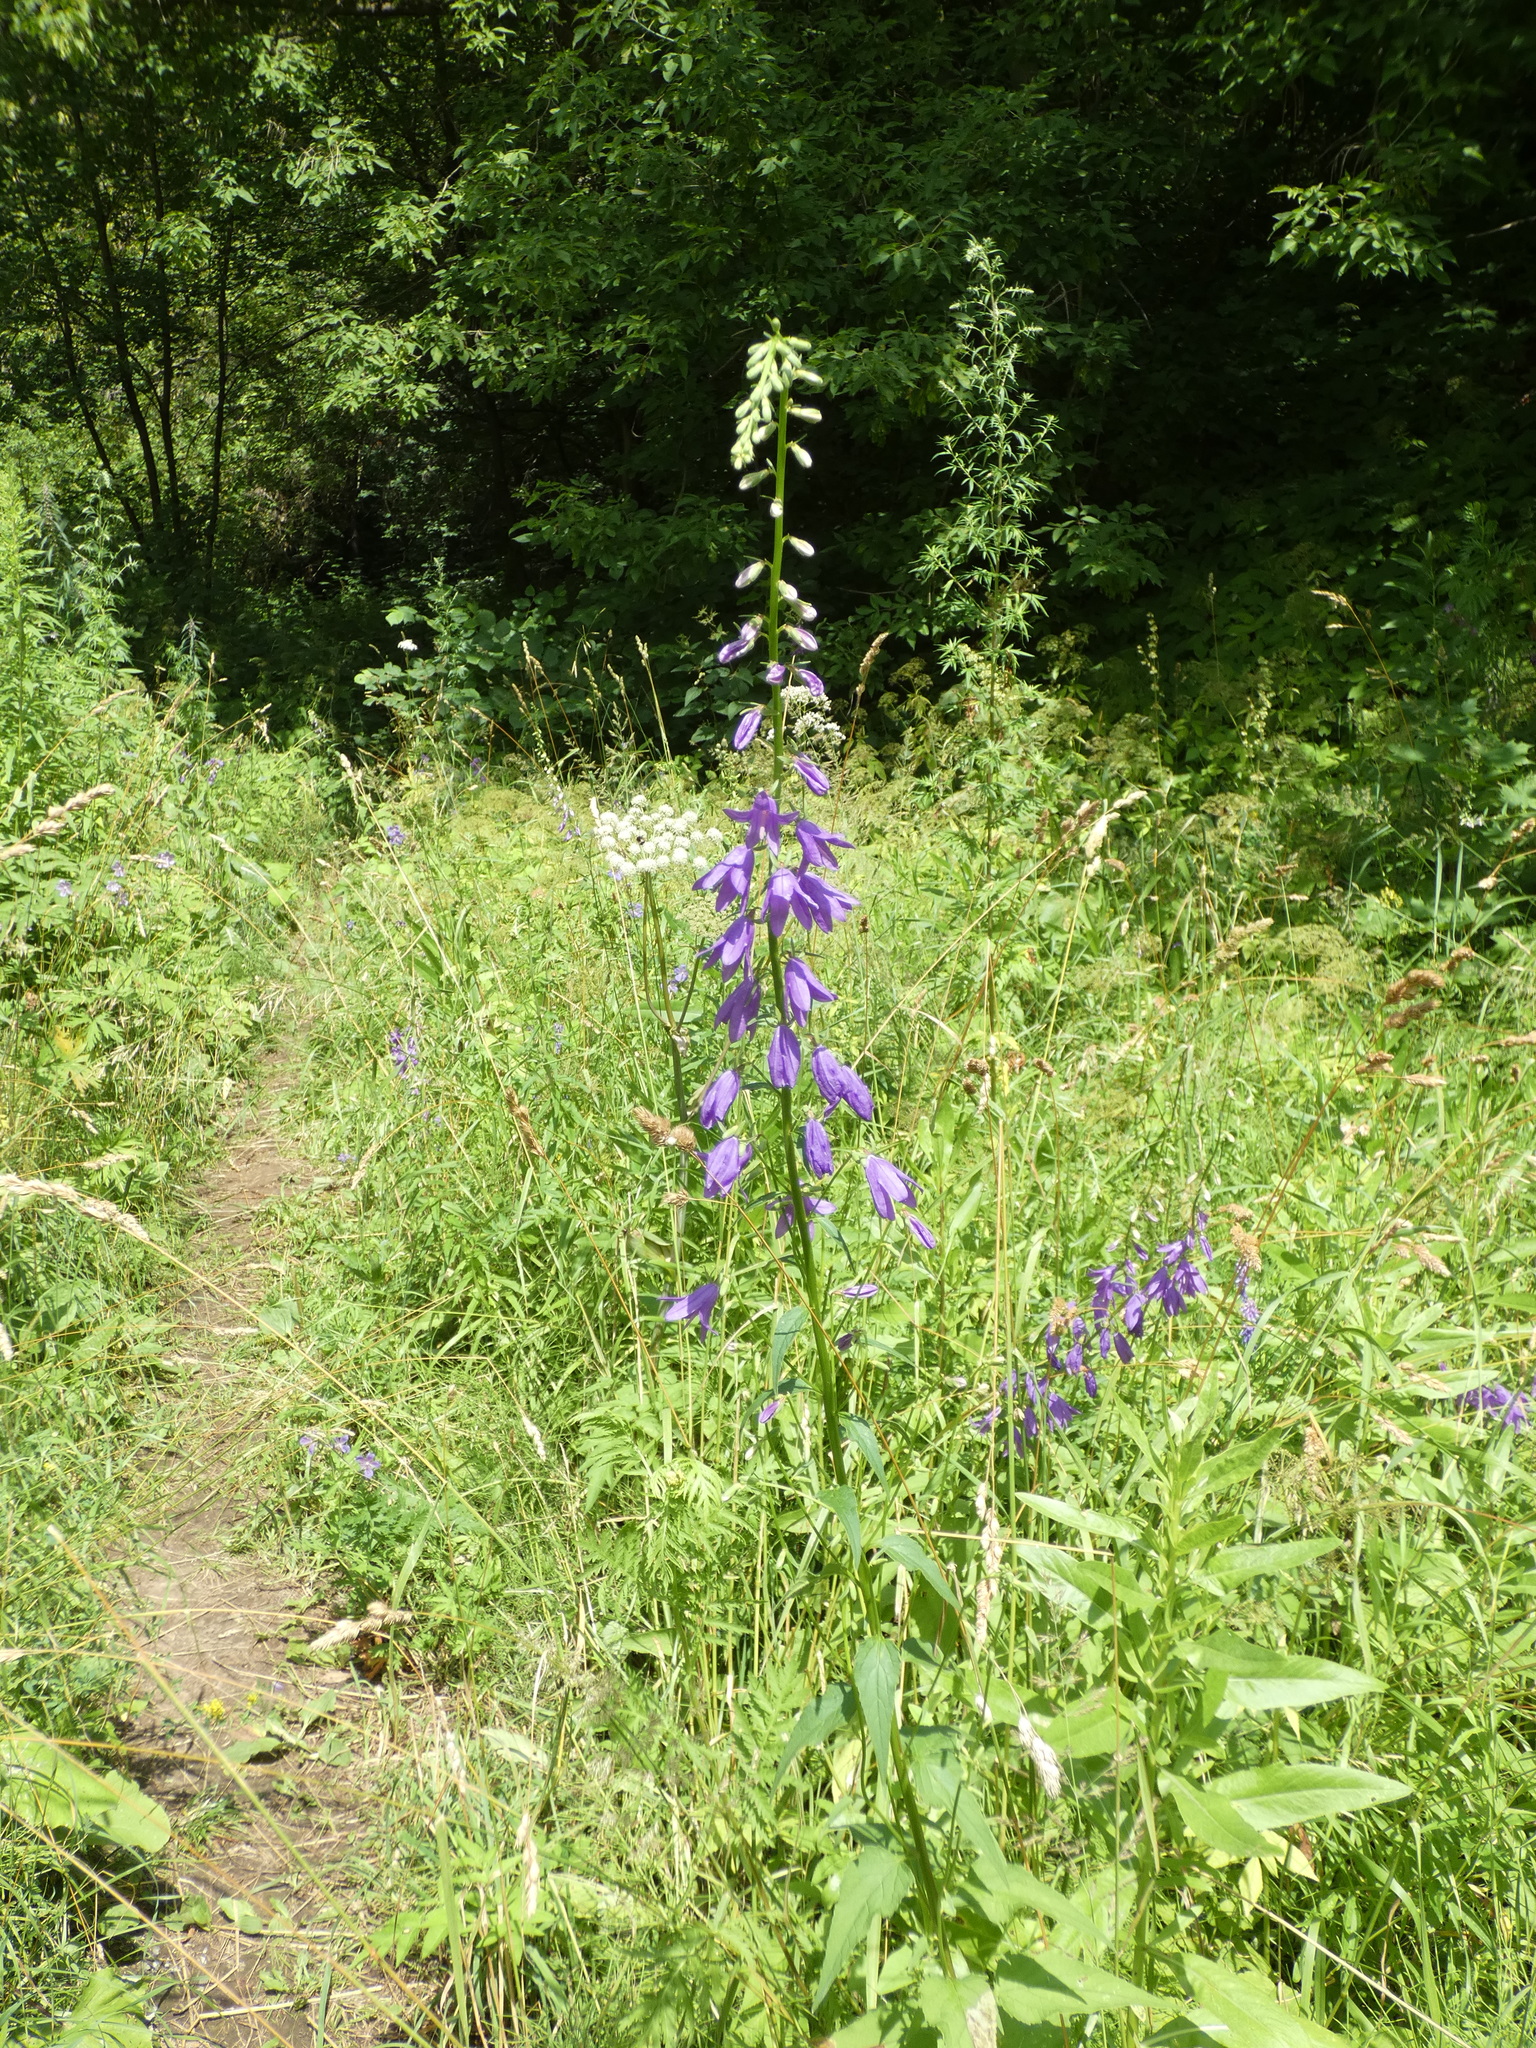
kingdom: Plantae
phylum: Tracheophyta
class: Magnoliopsida
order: Asterales
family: Campanulaceae
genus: Campanula
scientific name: Campanula rapunculoides
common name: Creeping bellflower
